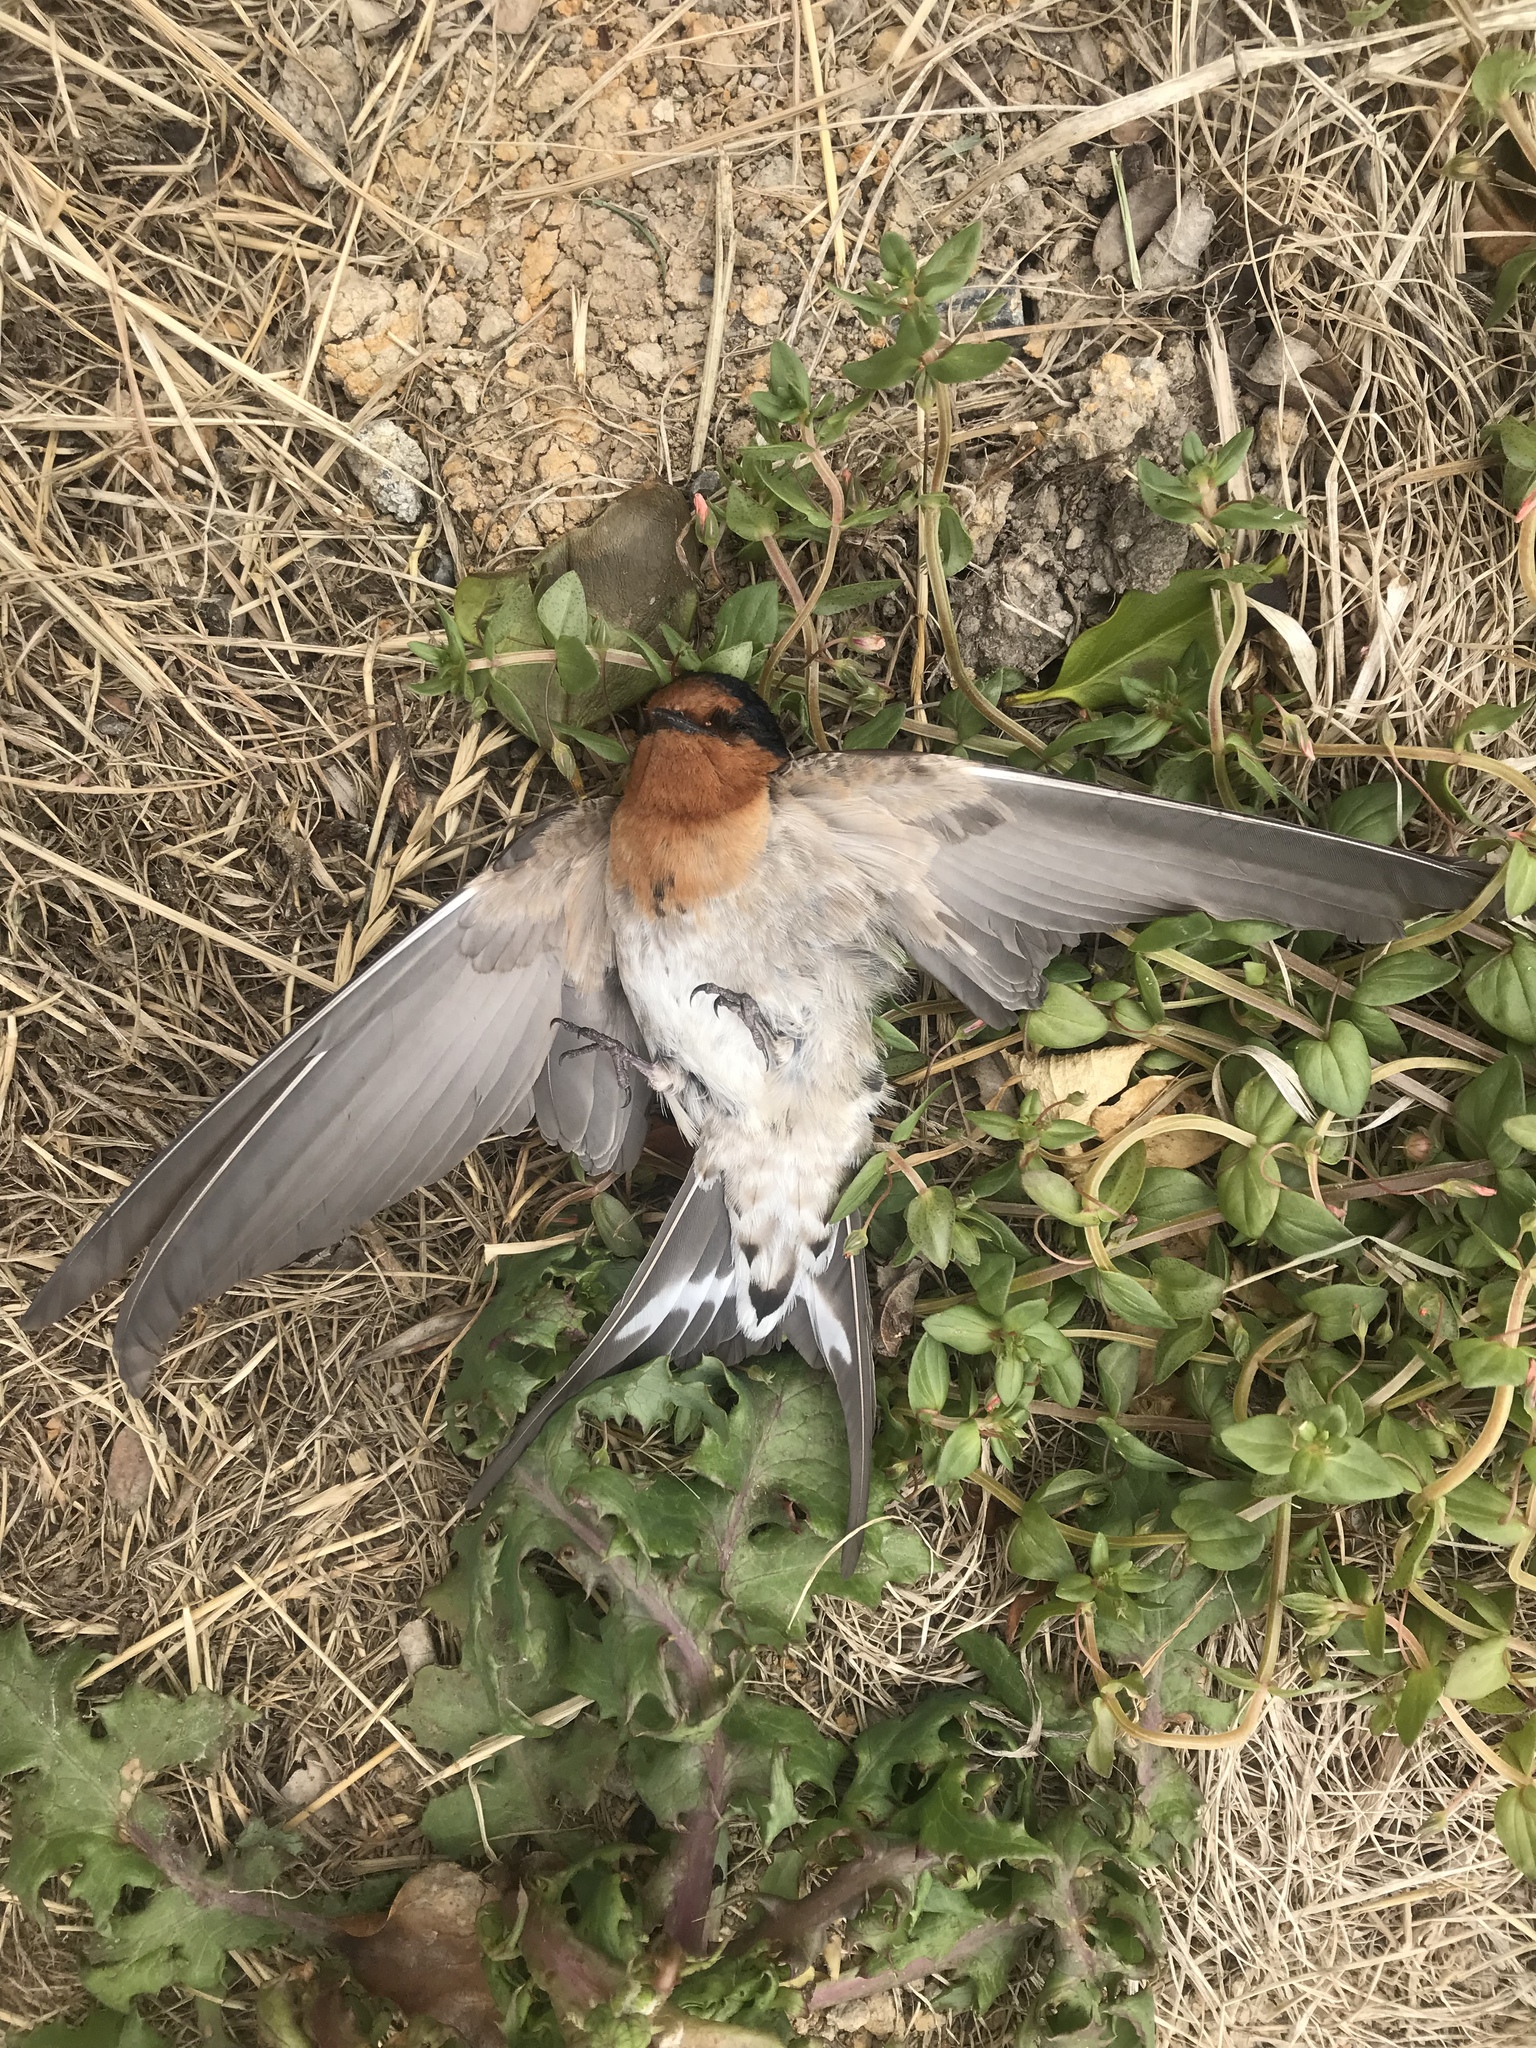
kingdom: Animalia
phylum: Chordata
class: Aves
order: Passeriformes
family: Hirundinidae
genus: Hirundo
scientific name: Hirundo neoxena
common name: Welcome swallow
